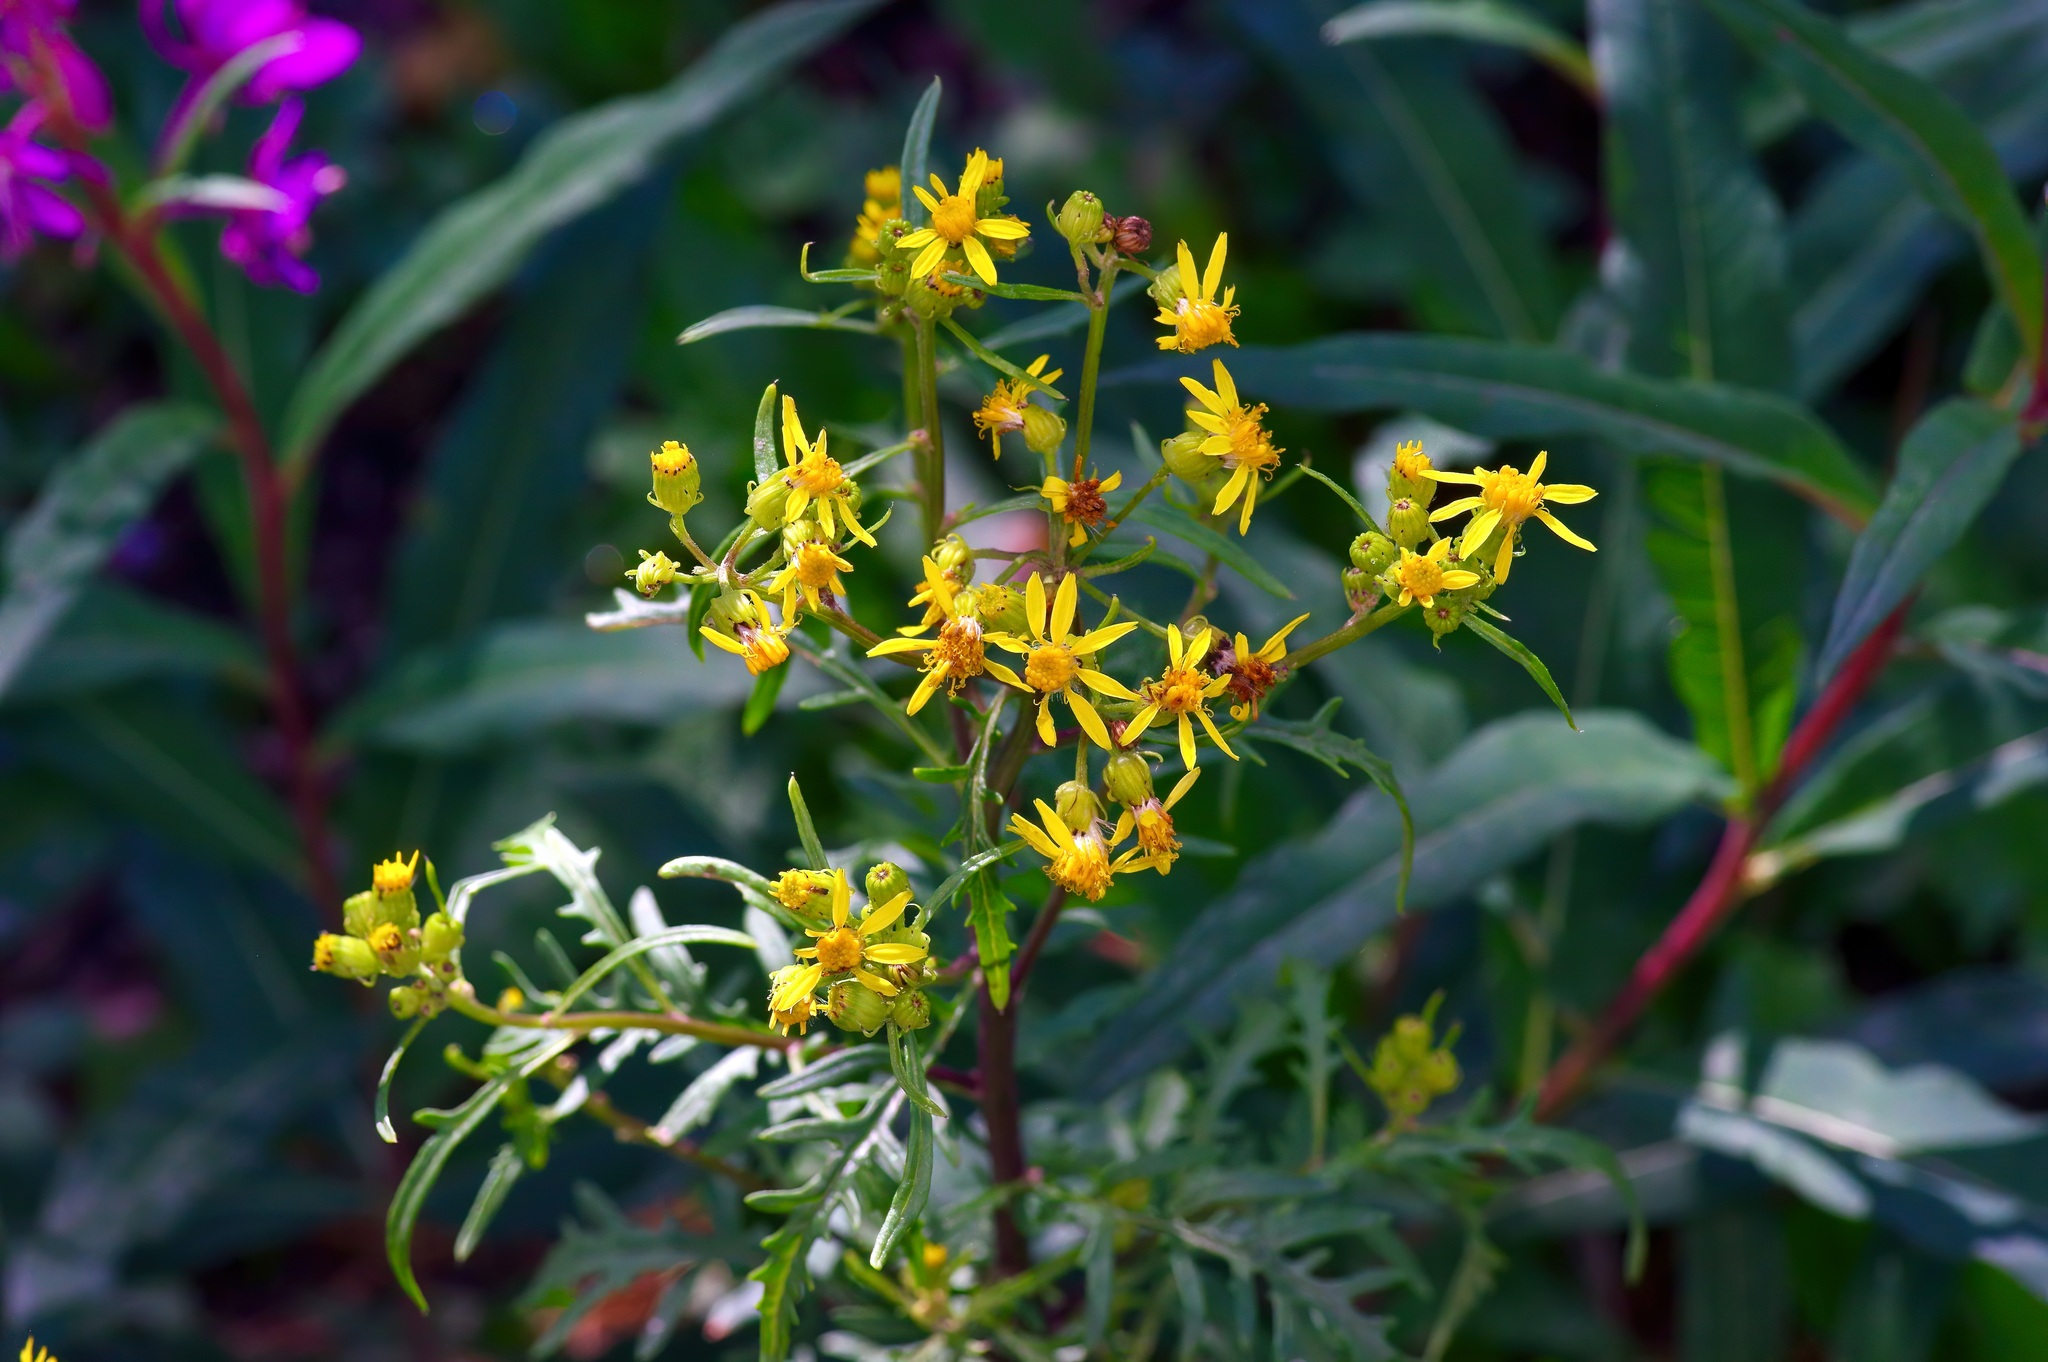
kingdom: Plantae
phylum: Tracheophyta
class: Magnoliopsida
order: Asterales
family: Asteraceae
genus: Senecio
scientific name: Senecio eremophilus
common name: Desert ragwort
